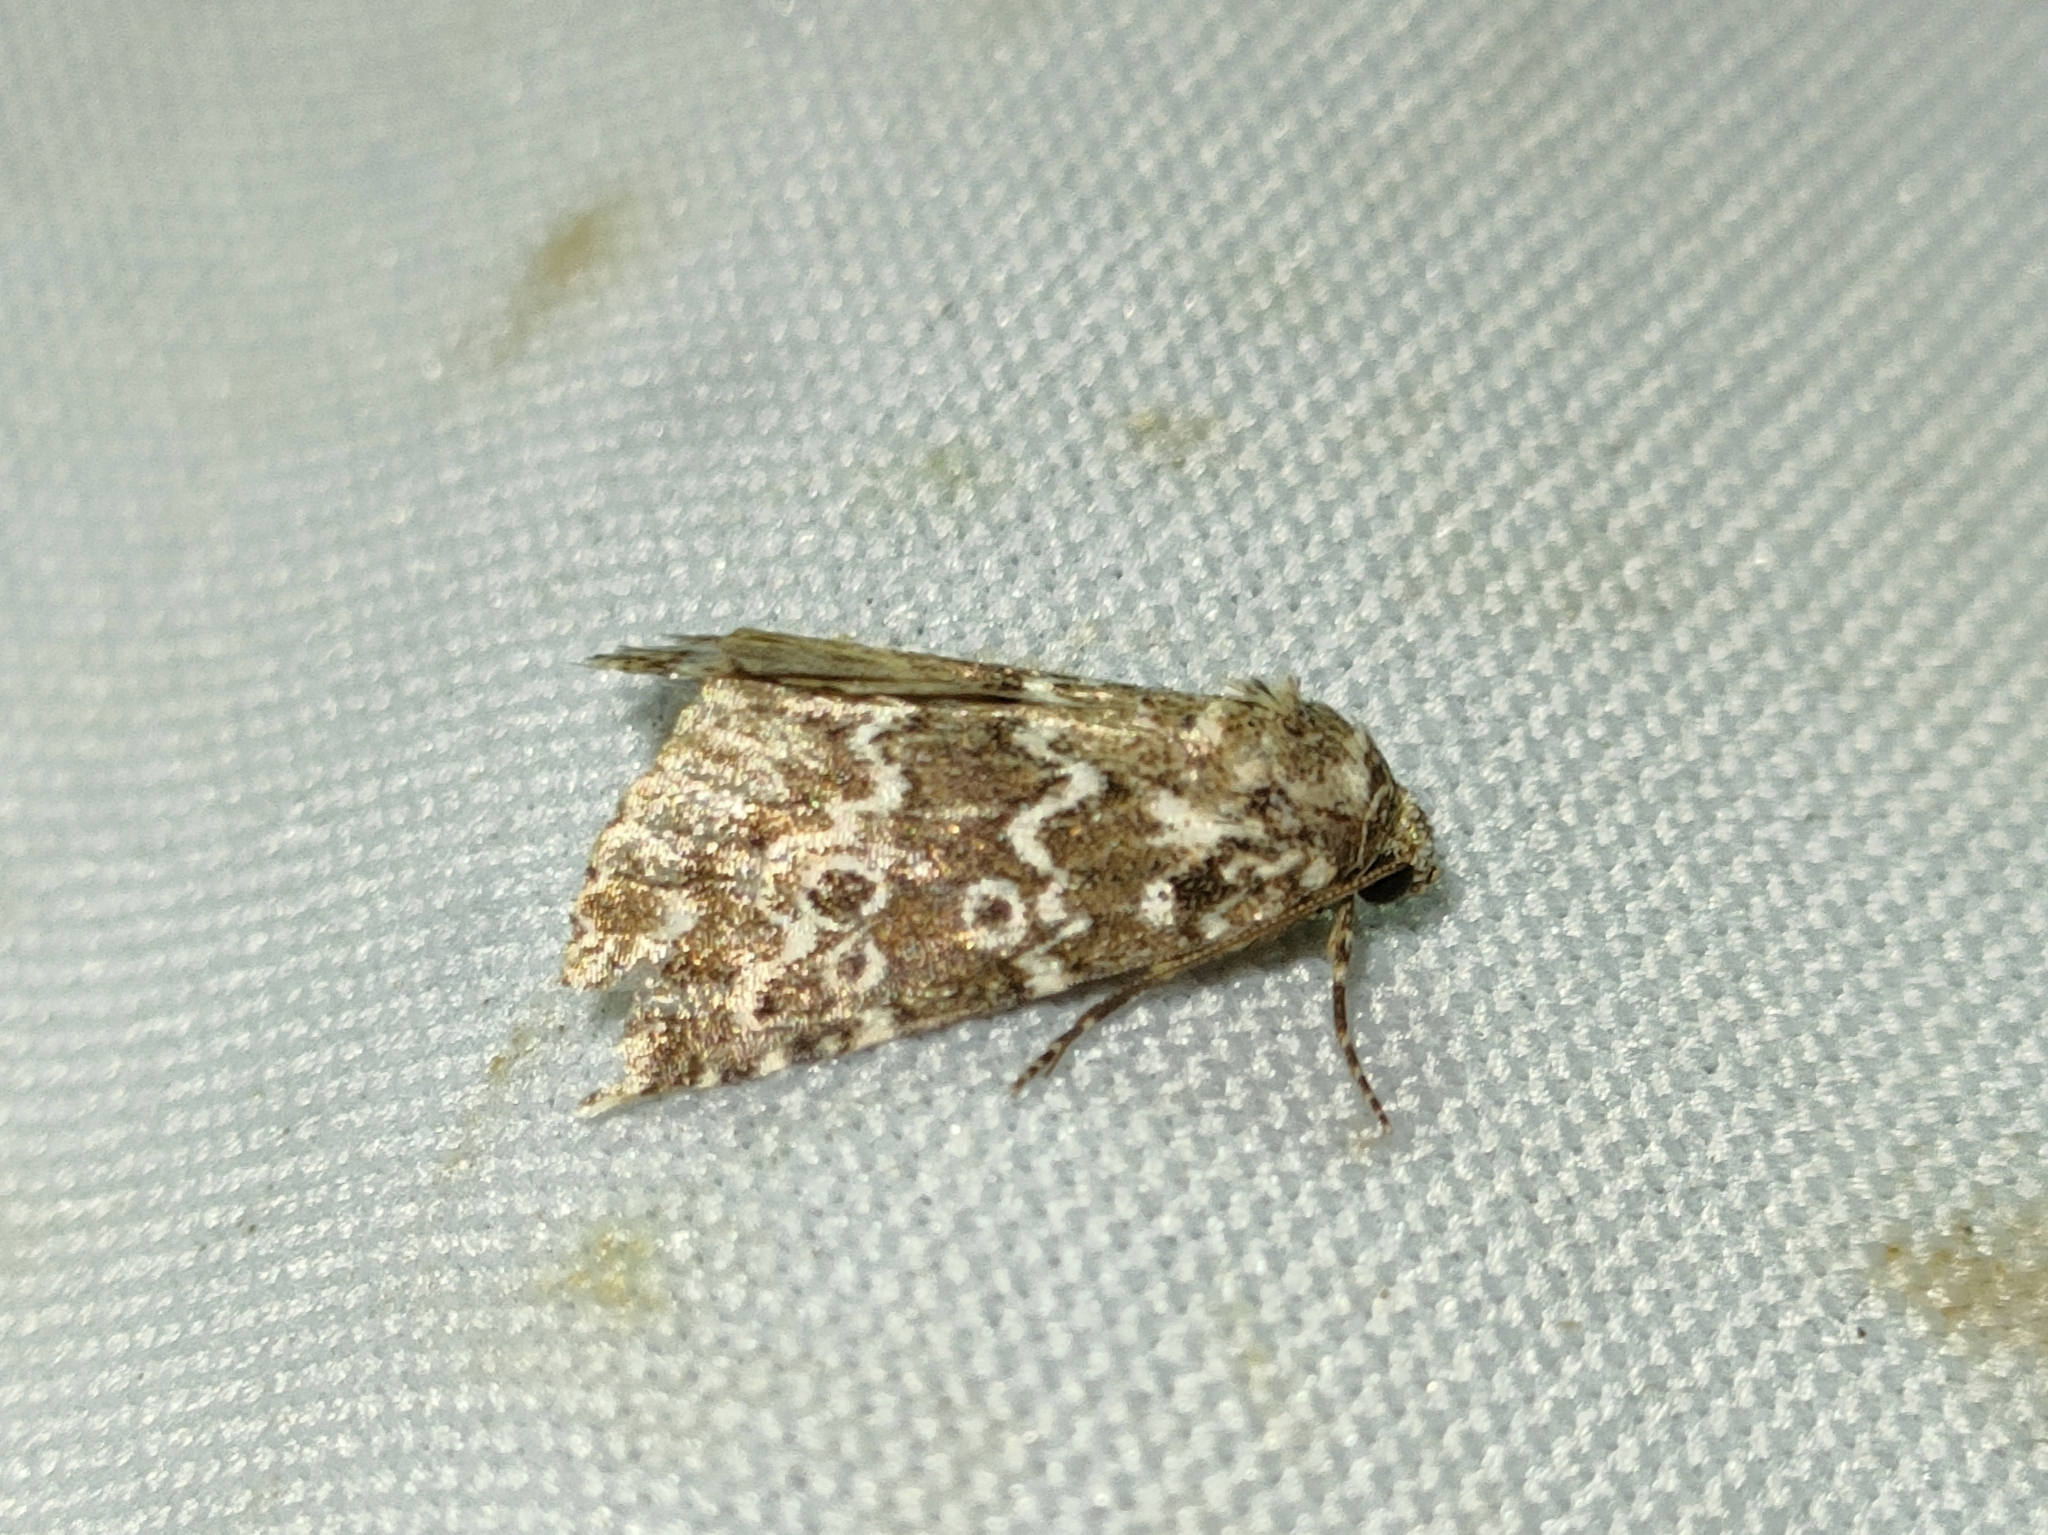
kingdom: Animalia
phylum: Arthropoda
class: Insecta
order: Lepidoptera
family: Noctuidae
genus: Alvaradoia
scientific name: Alvaradoia disjecta
